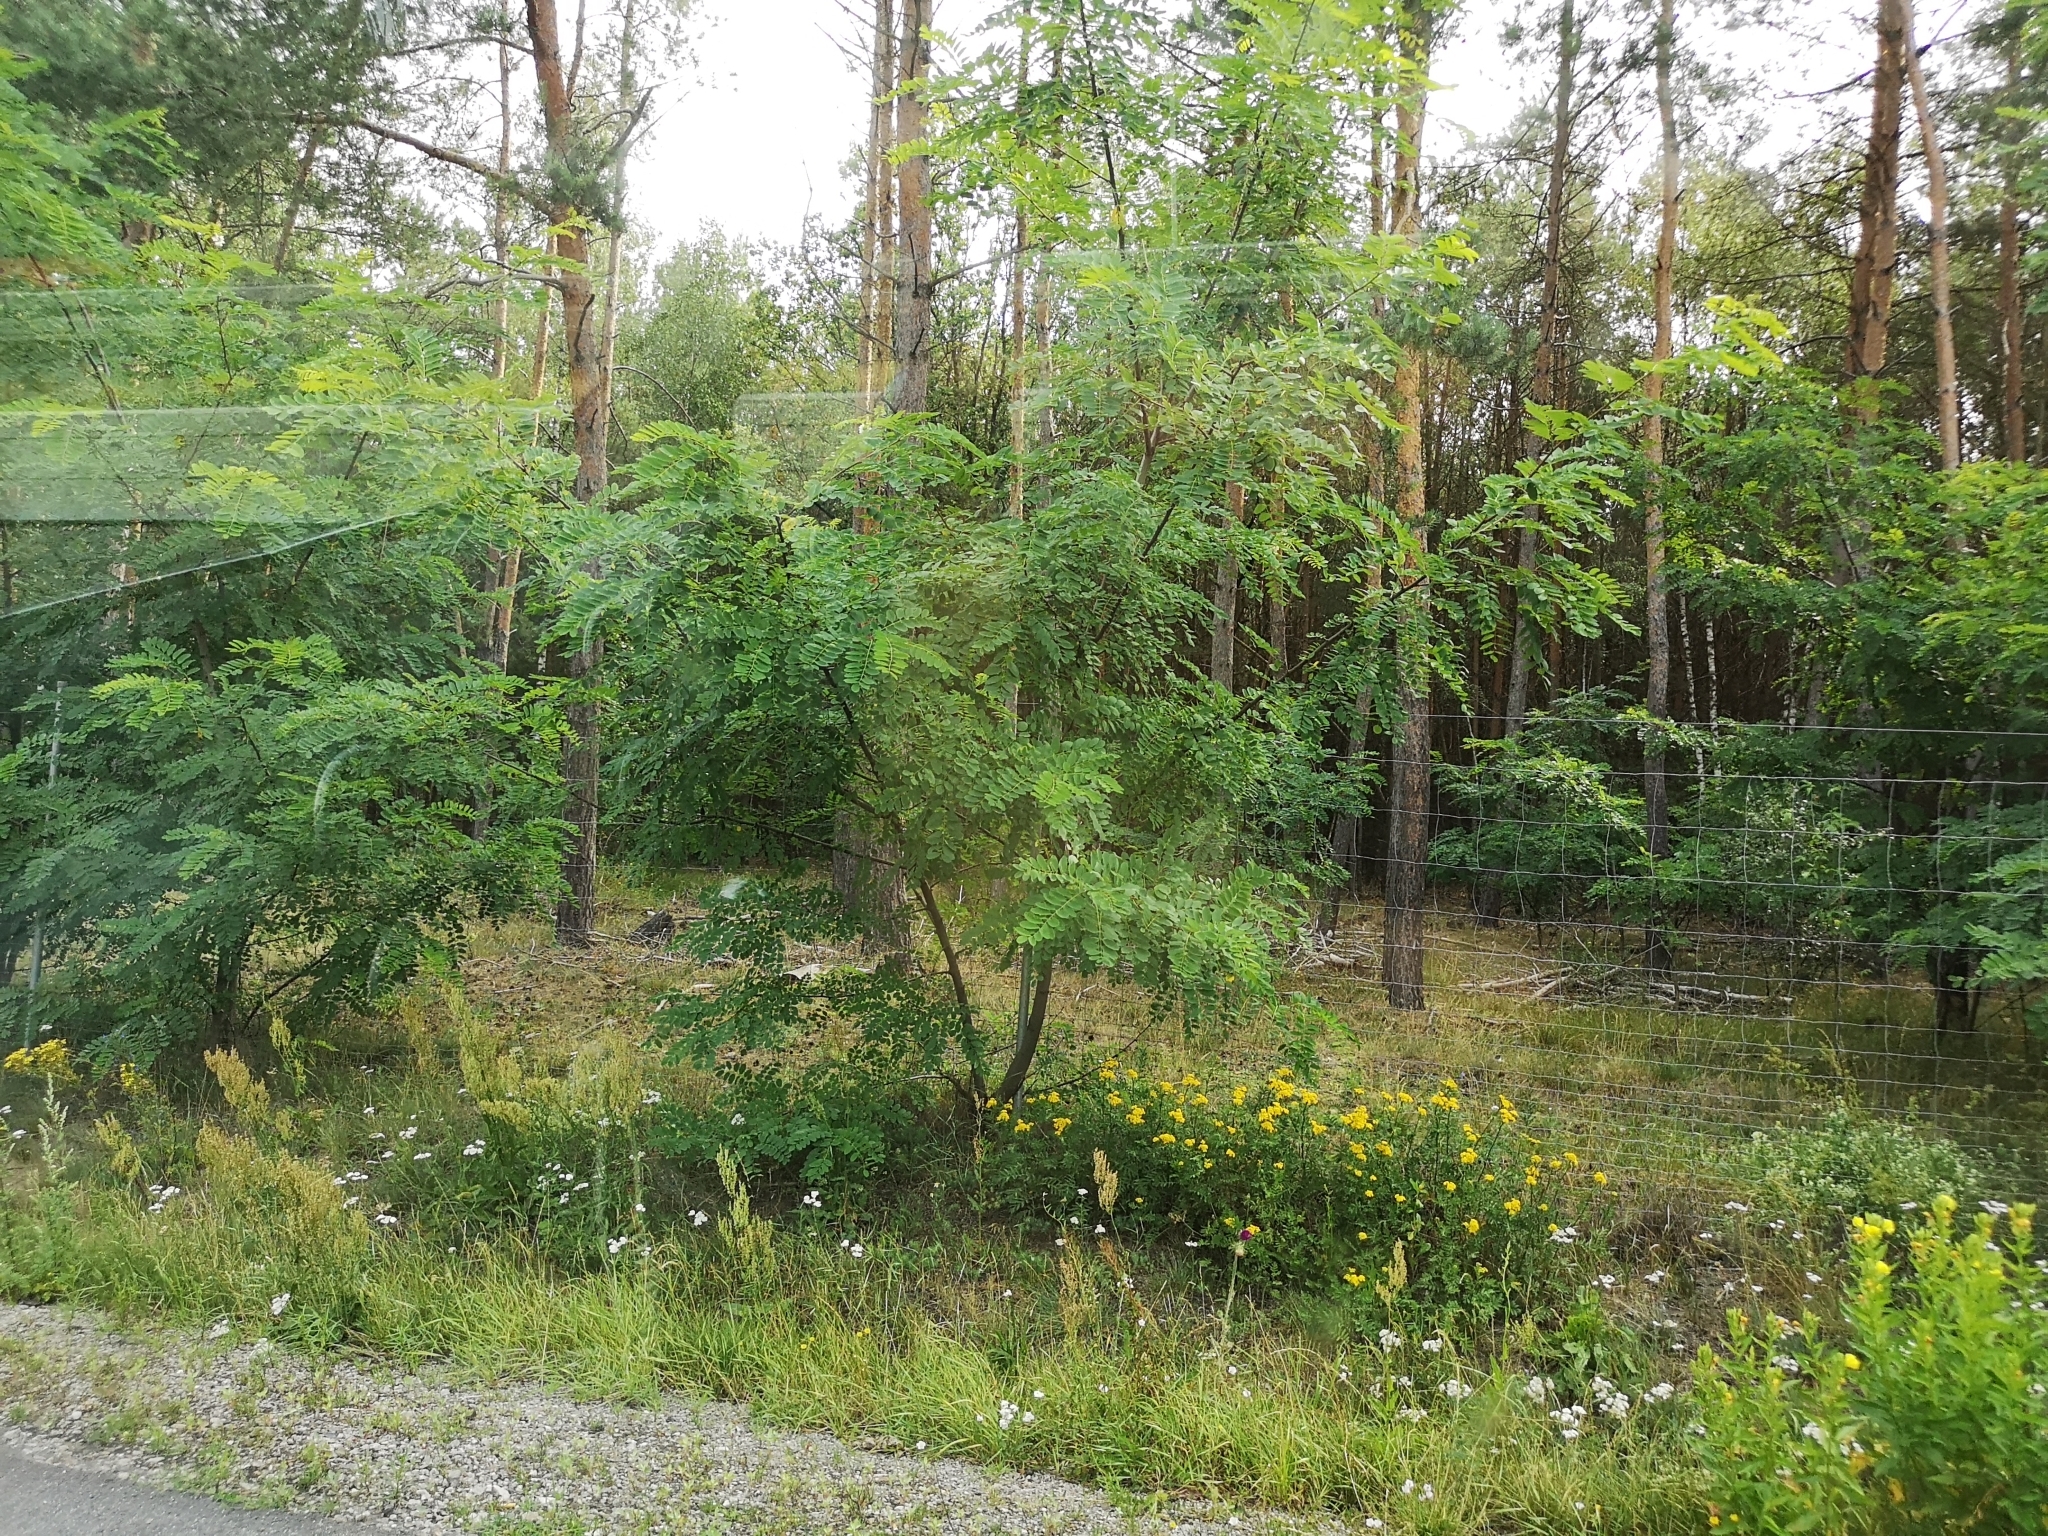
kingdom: Plantae
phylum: Tracheophyta
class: Magnoliopsida
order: Fabales
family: Fabaceae
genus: Robinia
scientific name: Robinia pseudoacacia
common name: Black locust
